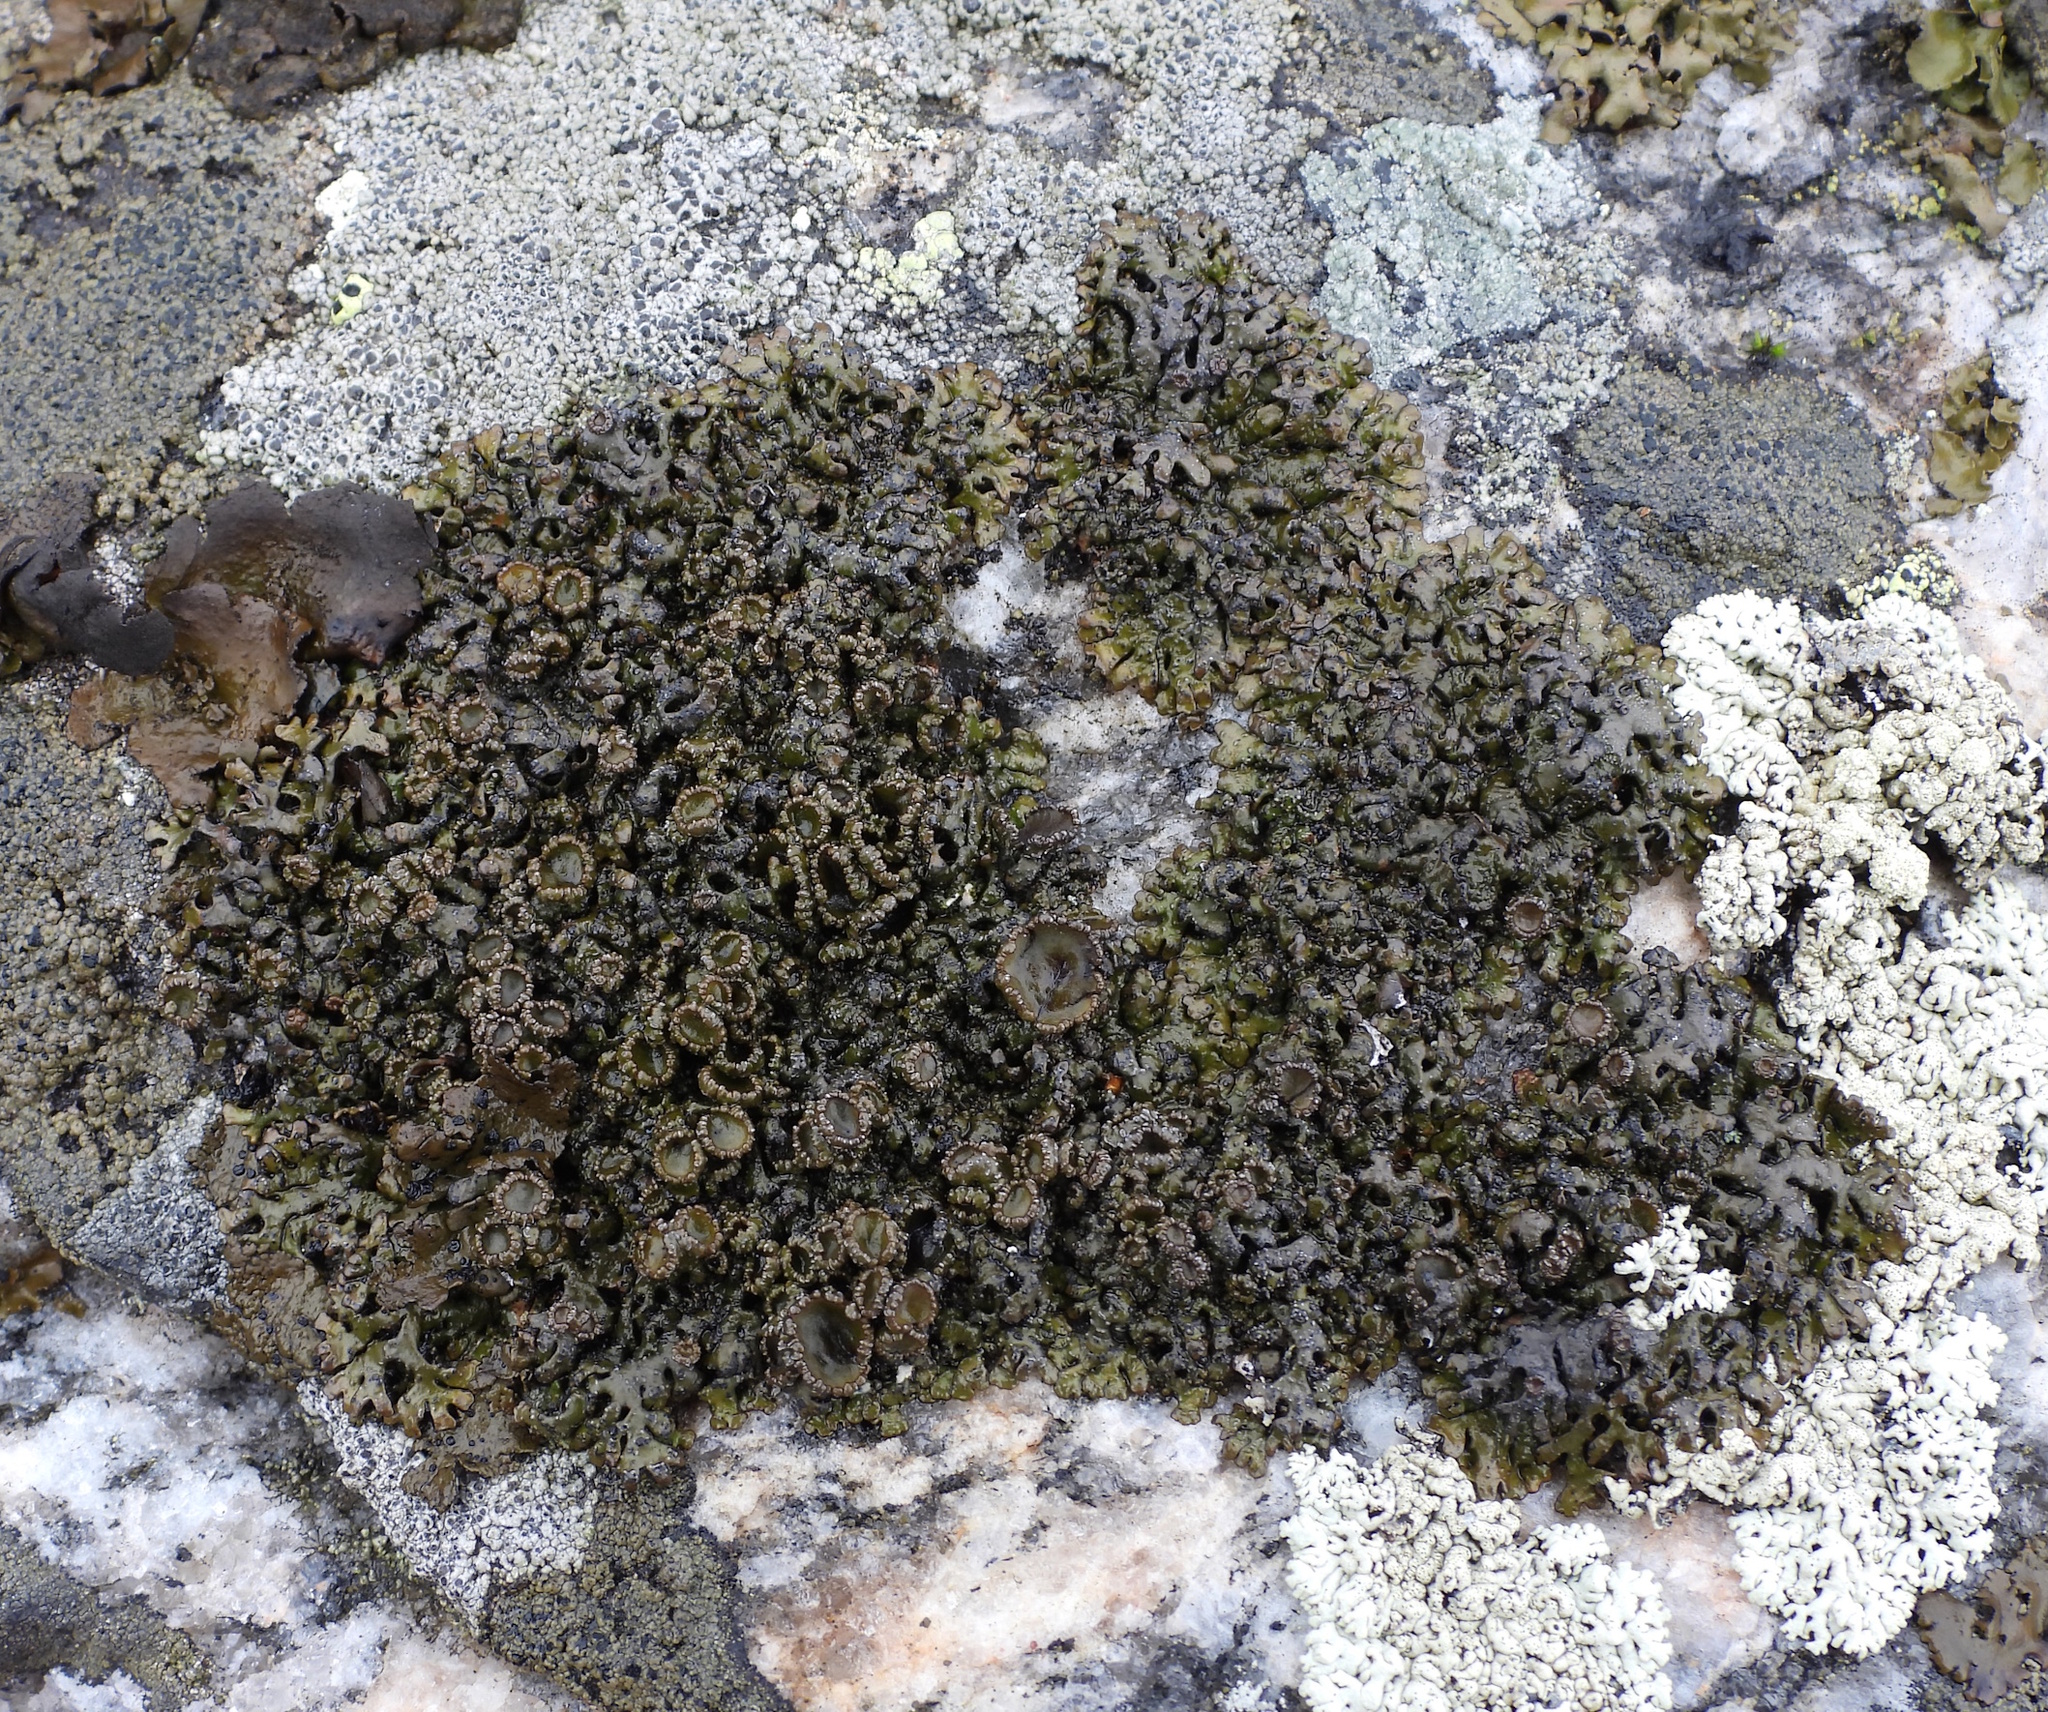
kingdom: Fungi
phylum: Ascomycota
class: Lecanoromycetes
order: Lecanorales
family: Parmeliaceae
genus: Melanelia
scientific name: Melanelia stygia
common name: Alpine camouflage lichen
